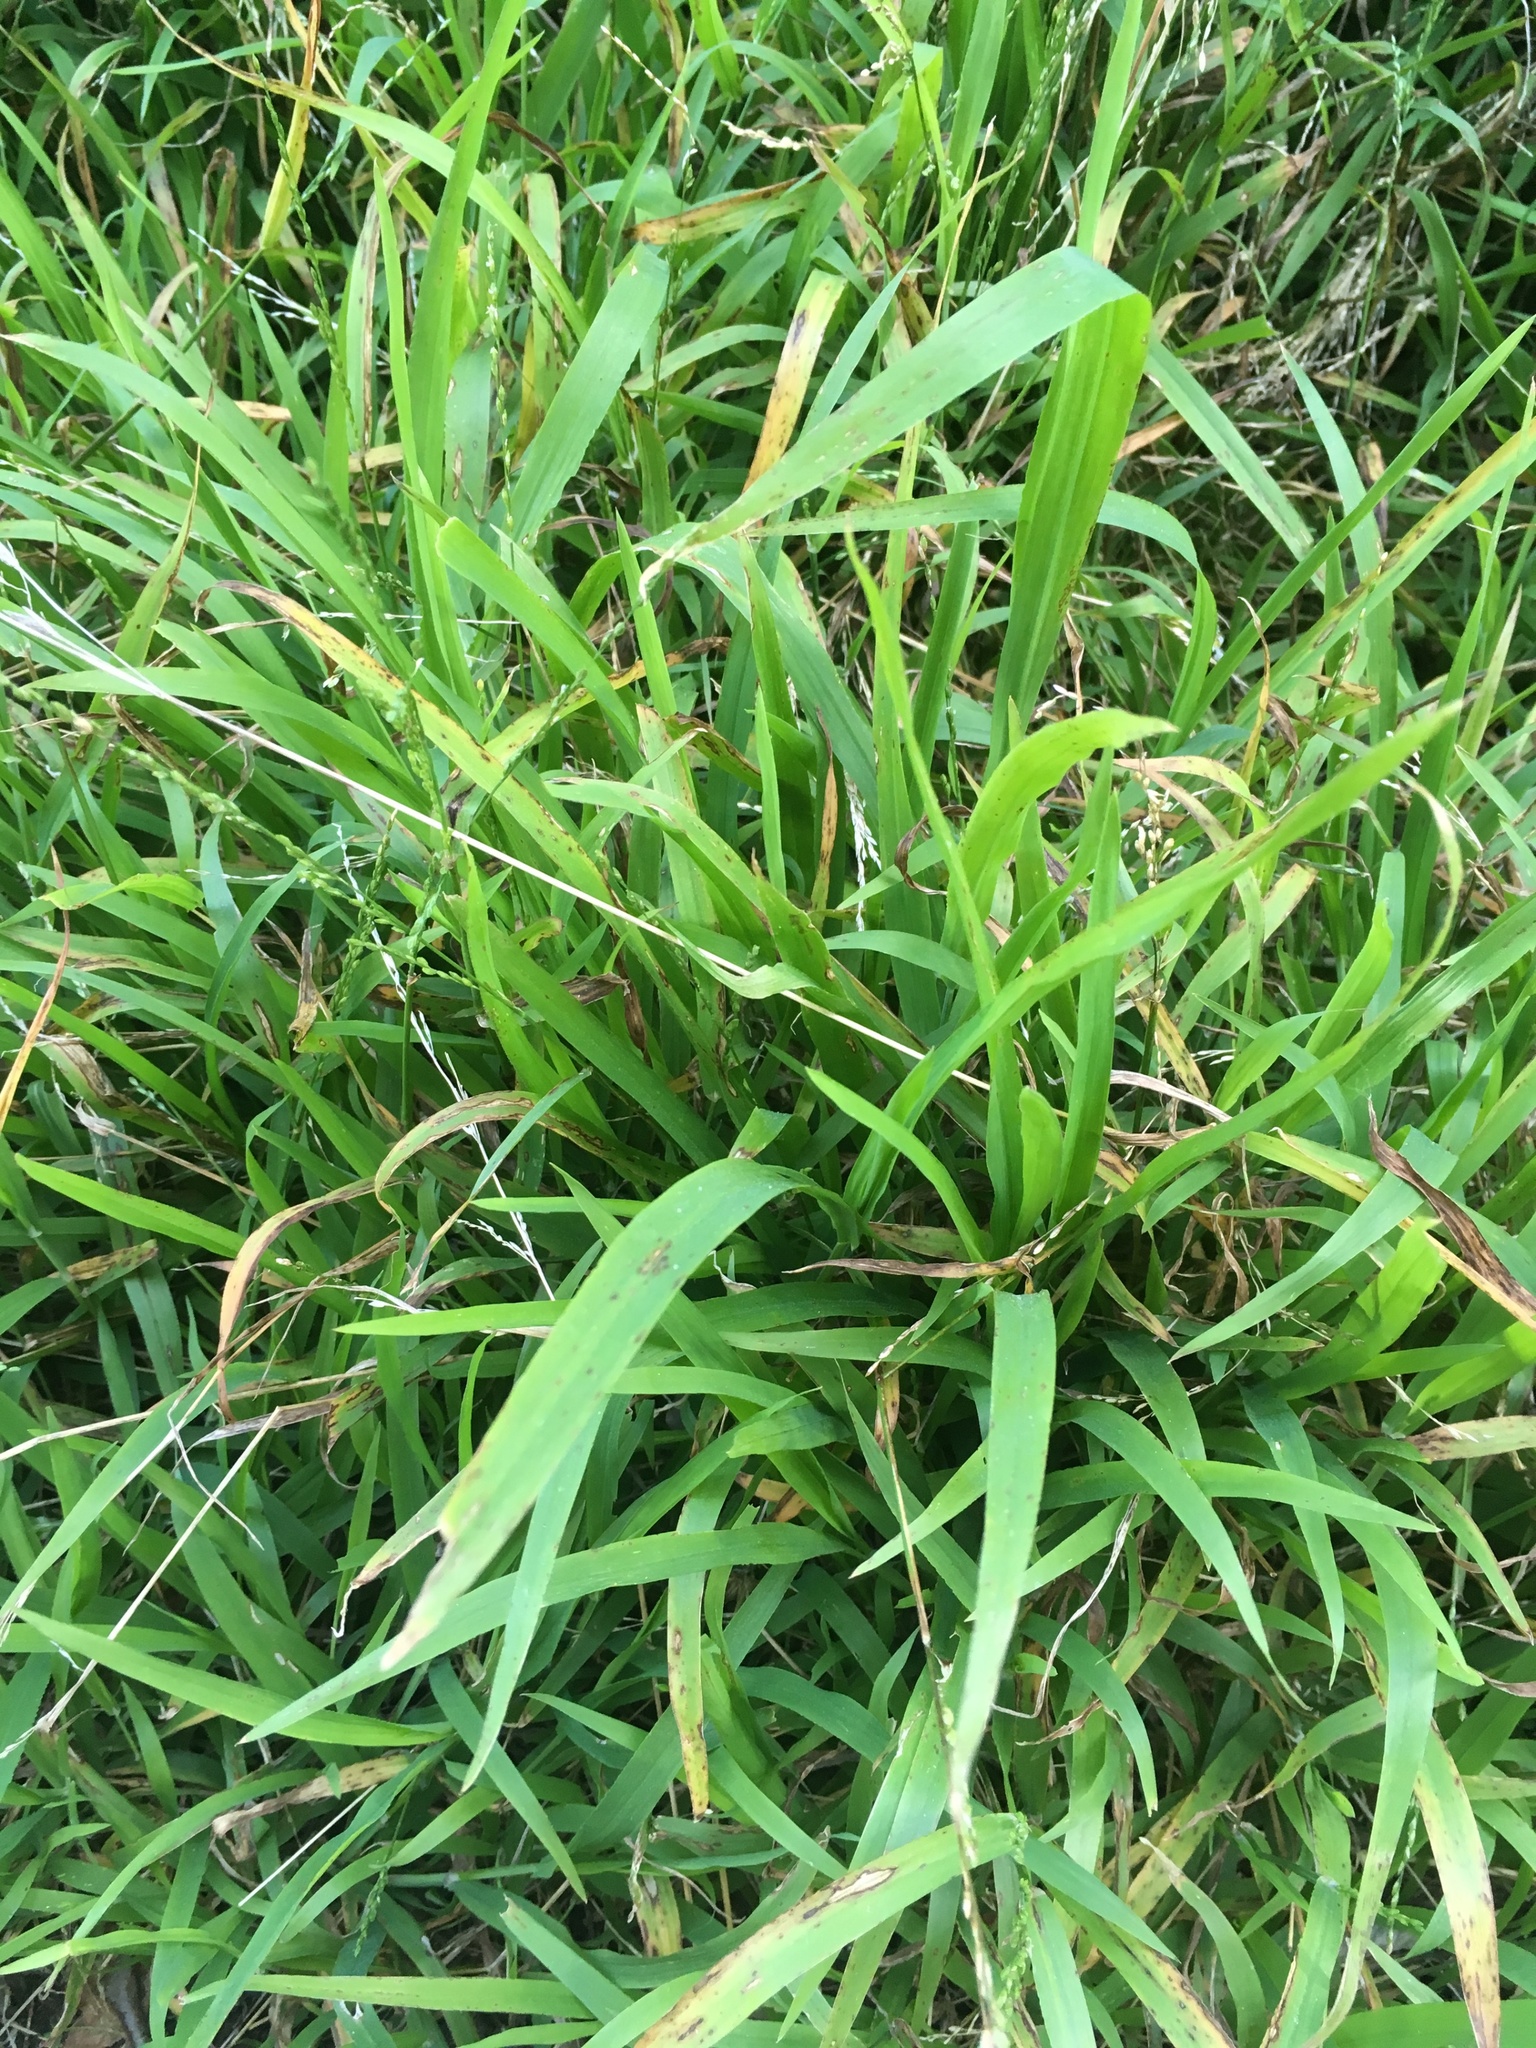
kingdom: Plantae
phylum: Tracheophyta
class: Liliopsida
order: Poales
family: Poaceae
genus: Ehrharta
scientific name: Ehrharta erecta
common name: Panic veldtgrass
